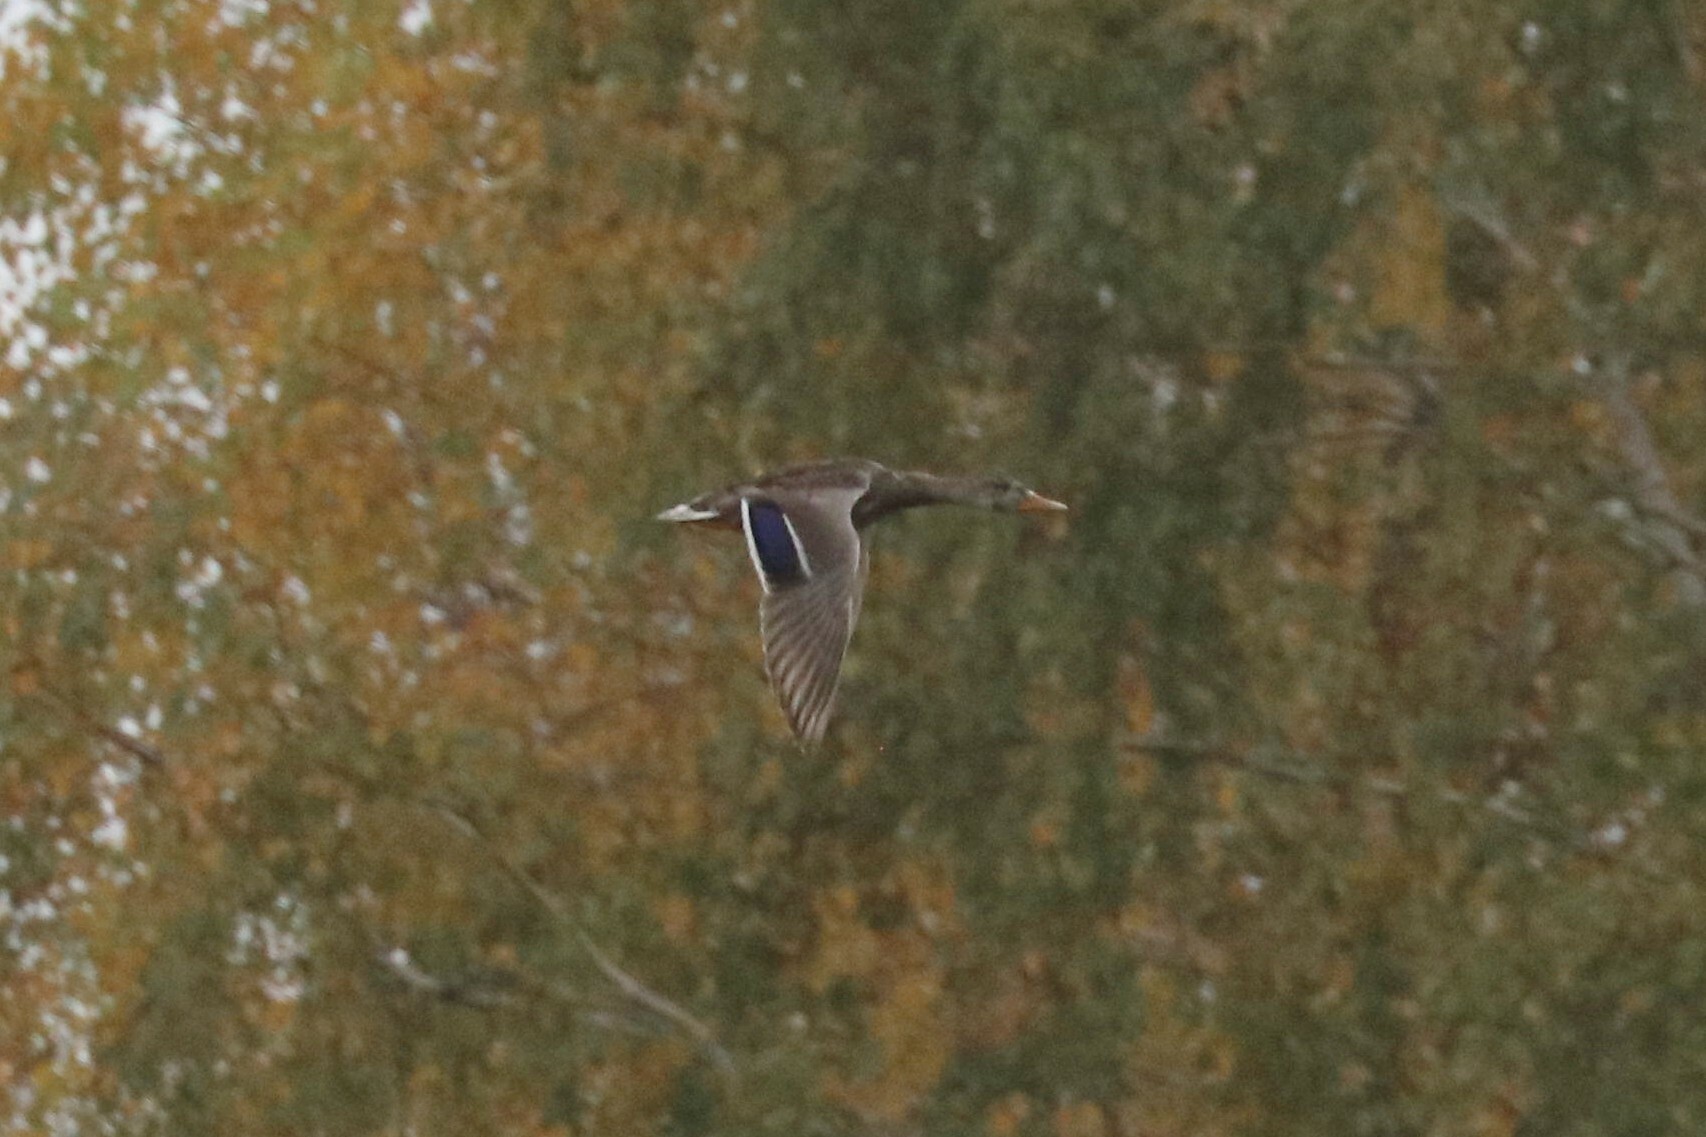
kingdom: Animalia
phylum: Chordata
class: Aves
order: Anseriformes
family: Anatidae
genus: Anas
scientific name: Anas platyrhynchos
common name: Mallard
